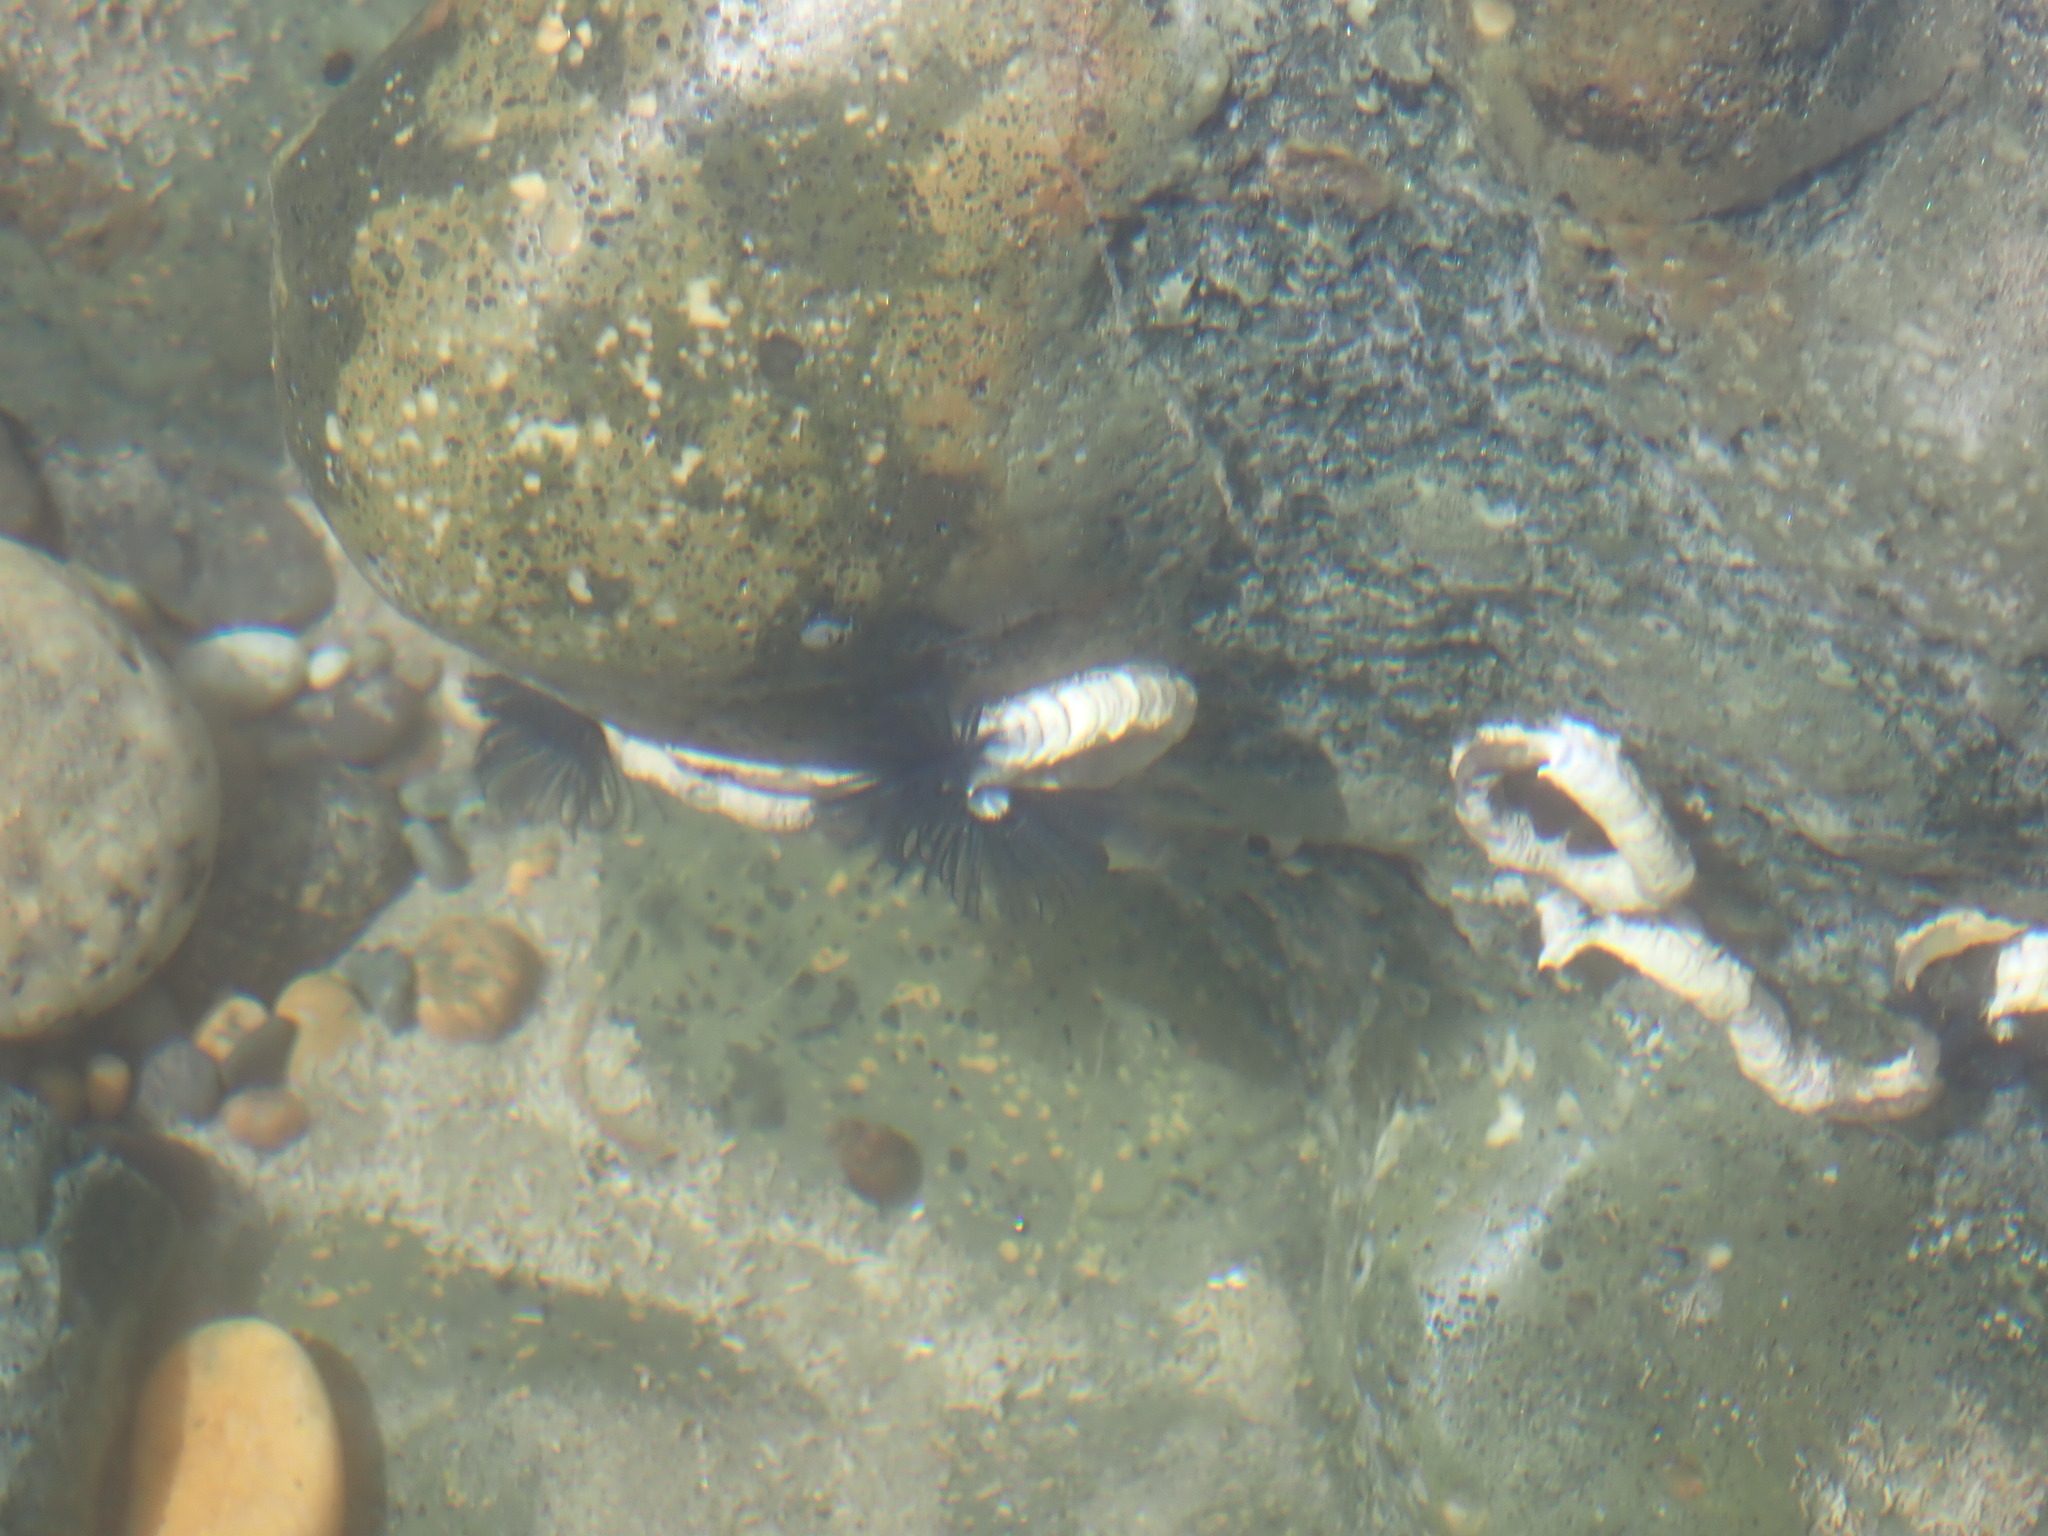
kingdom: Animalia
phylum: Annelida
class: Polychaeta
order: Sabellida
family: Serpulidae
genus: Spirobranchus
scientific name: Spirobranchus cariniferus
